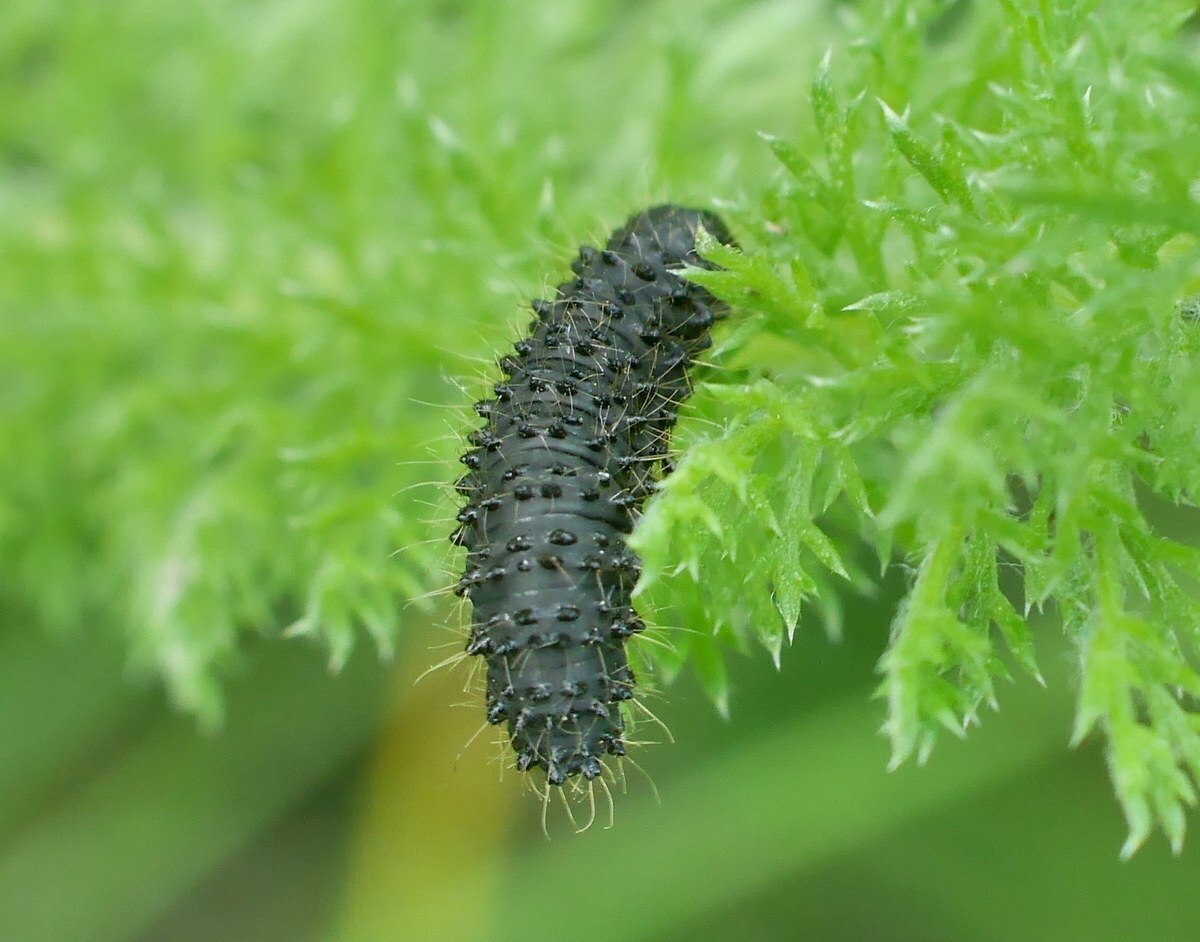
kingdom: Animalia
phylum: Arthropoda
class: Insecta
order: Coleoptera
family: Chrysomelidae
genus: Galeruca
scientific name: Galeruca tanaceti
